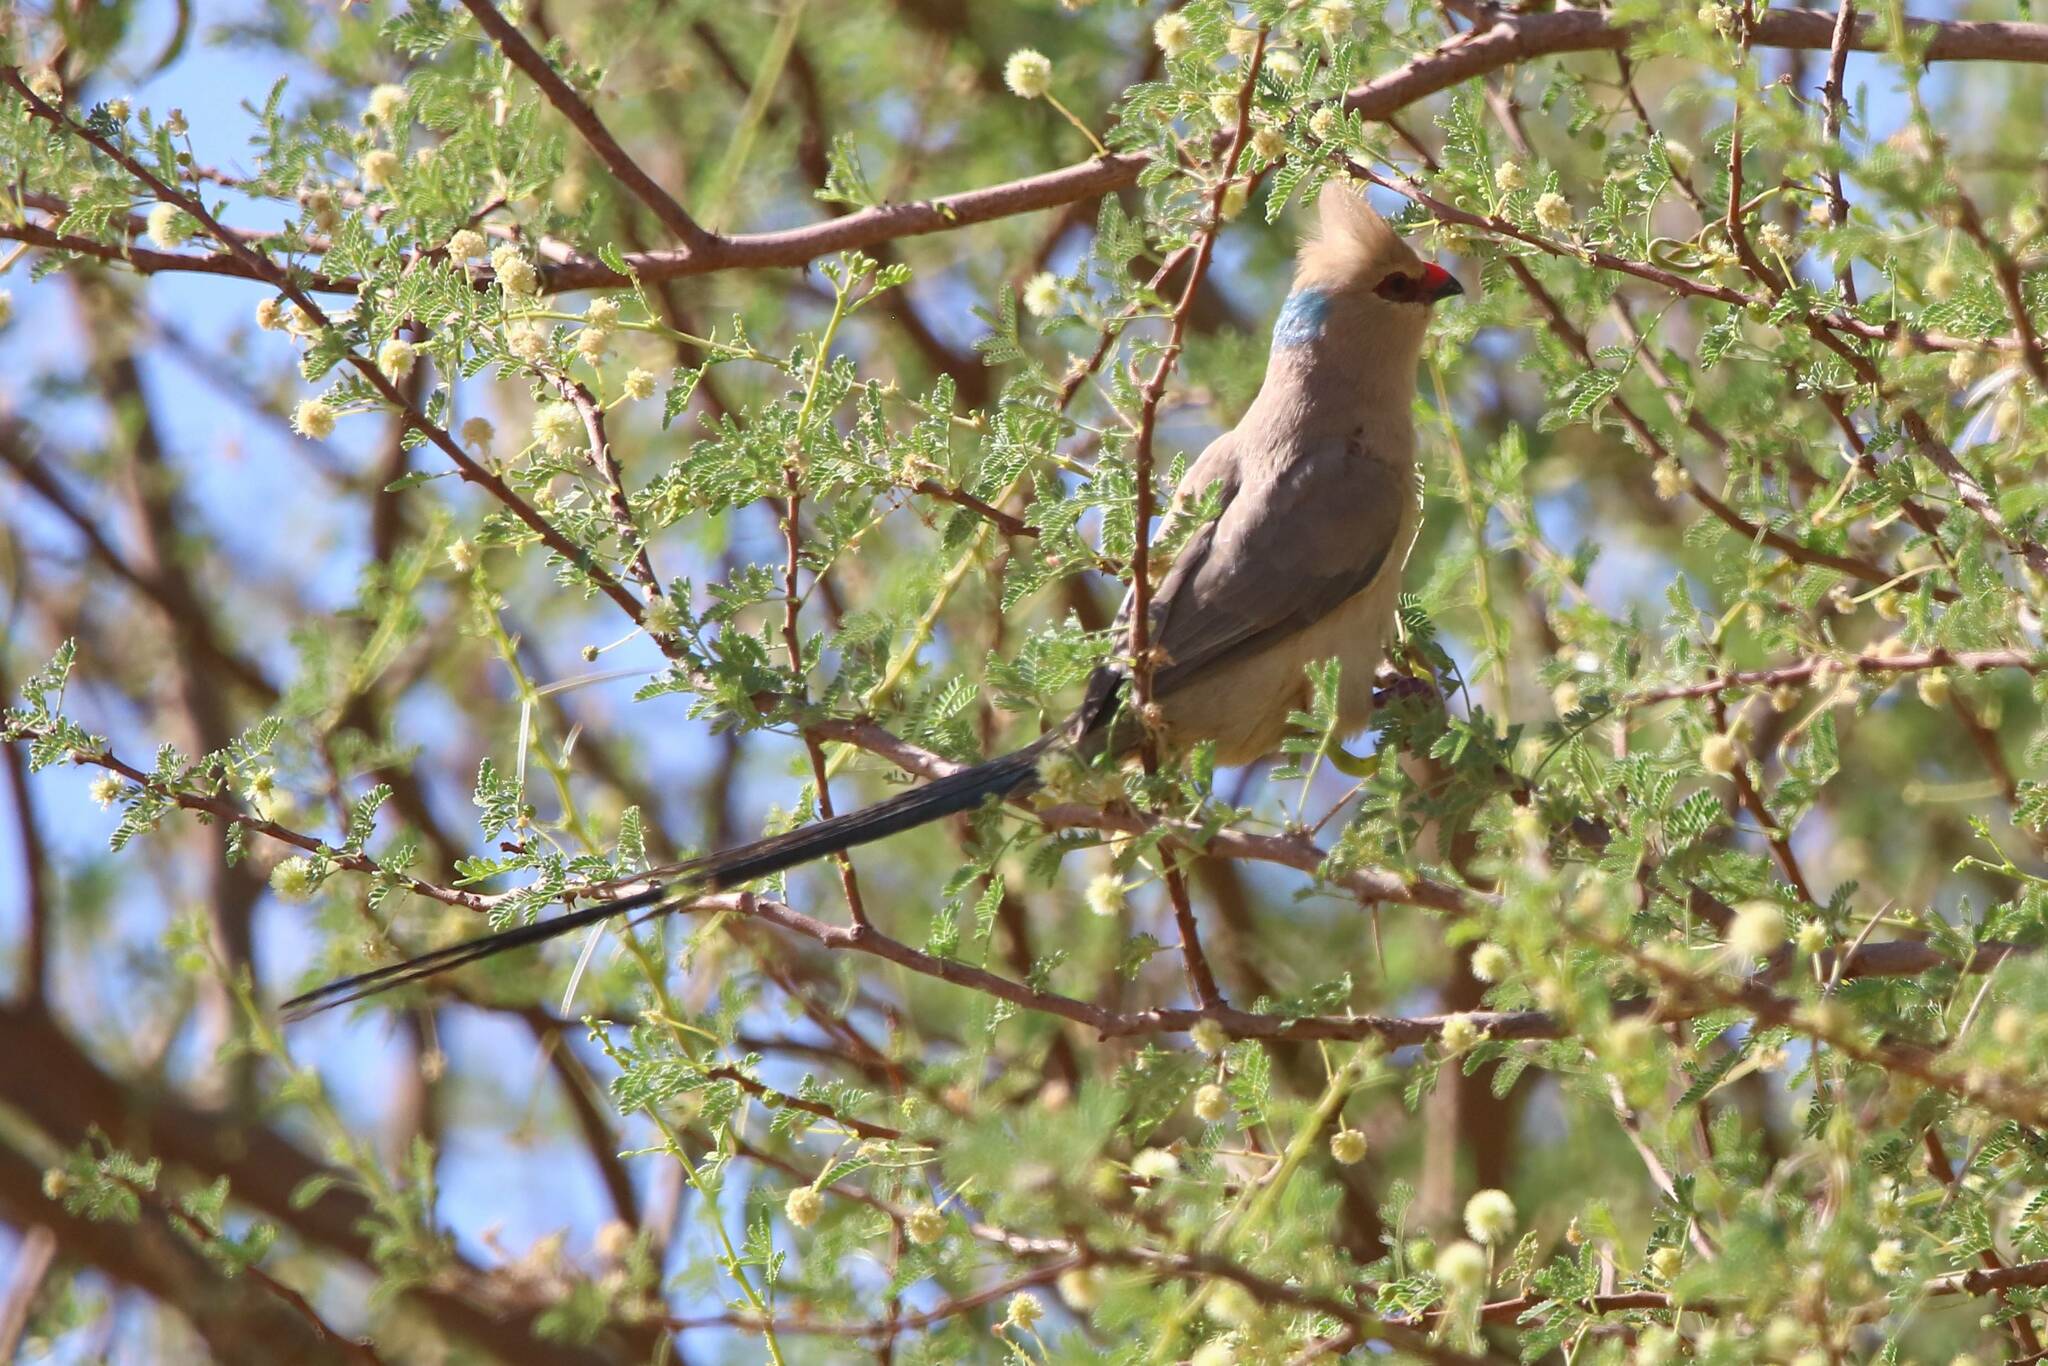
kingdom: Animalia
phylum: Chordata
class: Aves
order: Coliiformes
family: Coliidae
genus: Urocolius
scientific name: Urocolius macrourus
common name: Blue-naped mousebird
